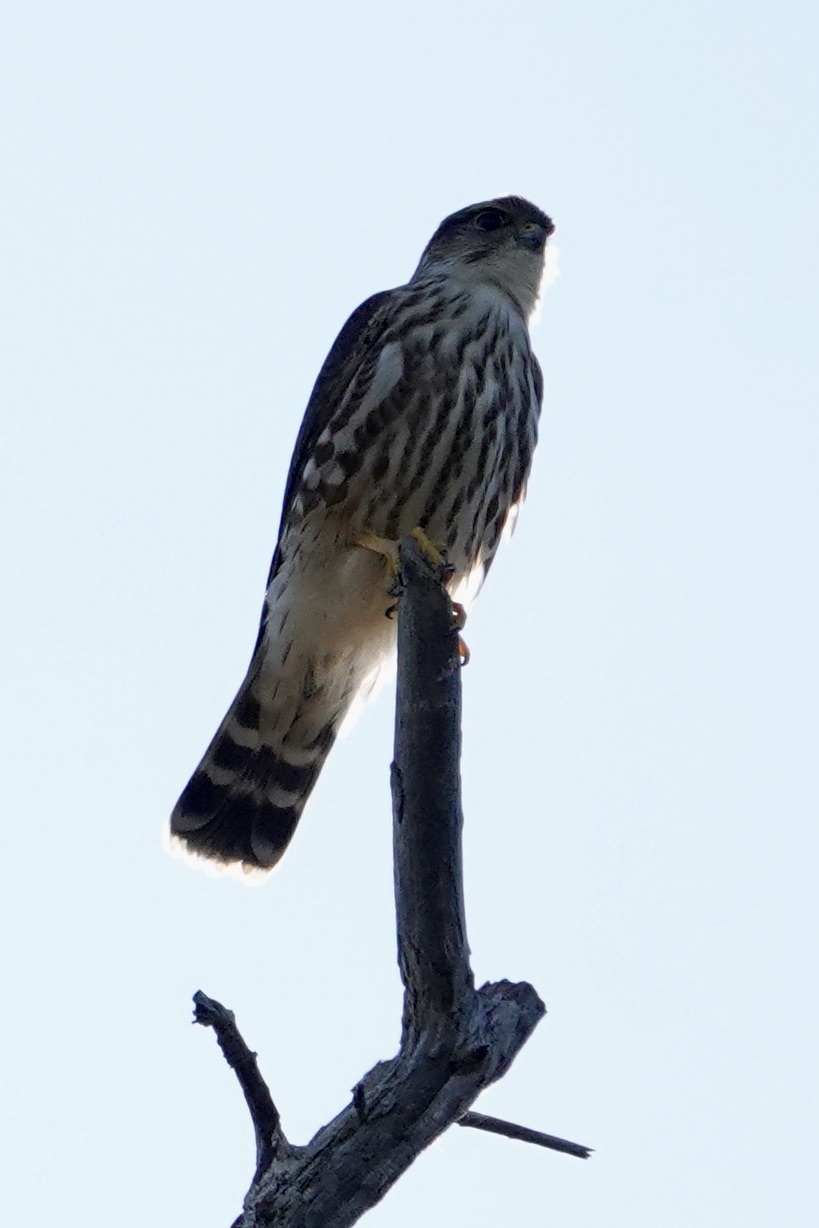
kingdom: Animalia
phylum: Chordata
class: Aves
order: Falconiformes
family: Falconidae
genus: Falco
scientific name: Falco columbarius
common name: Merlin
